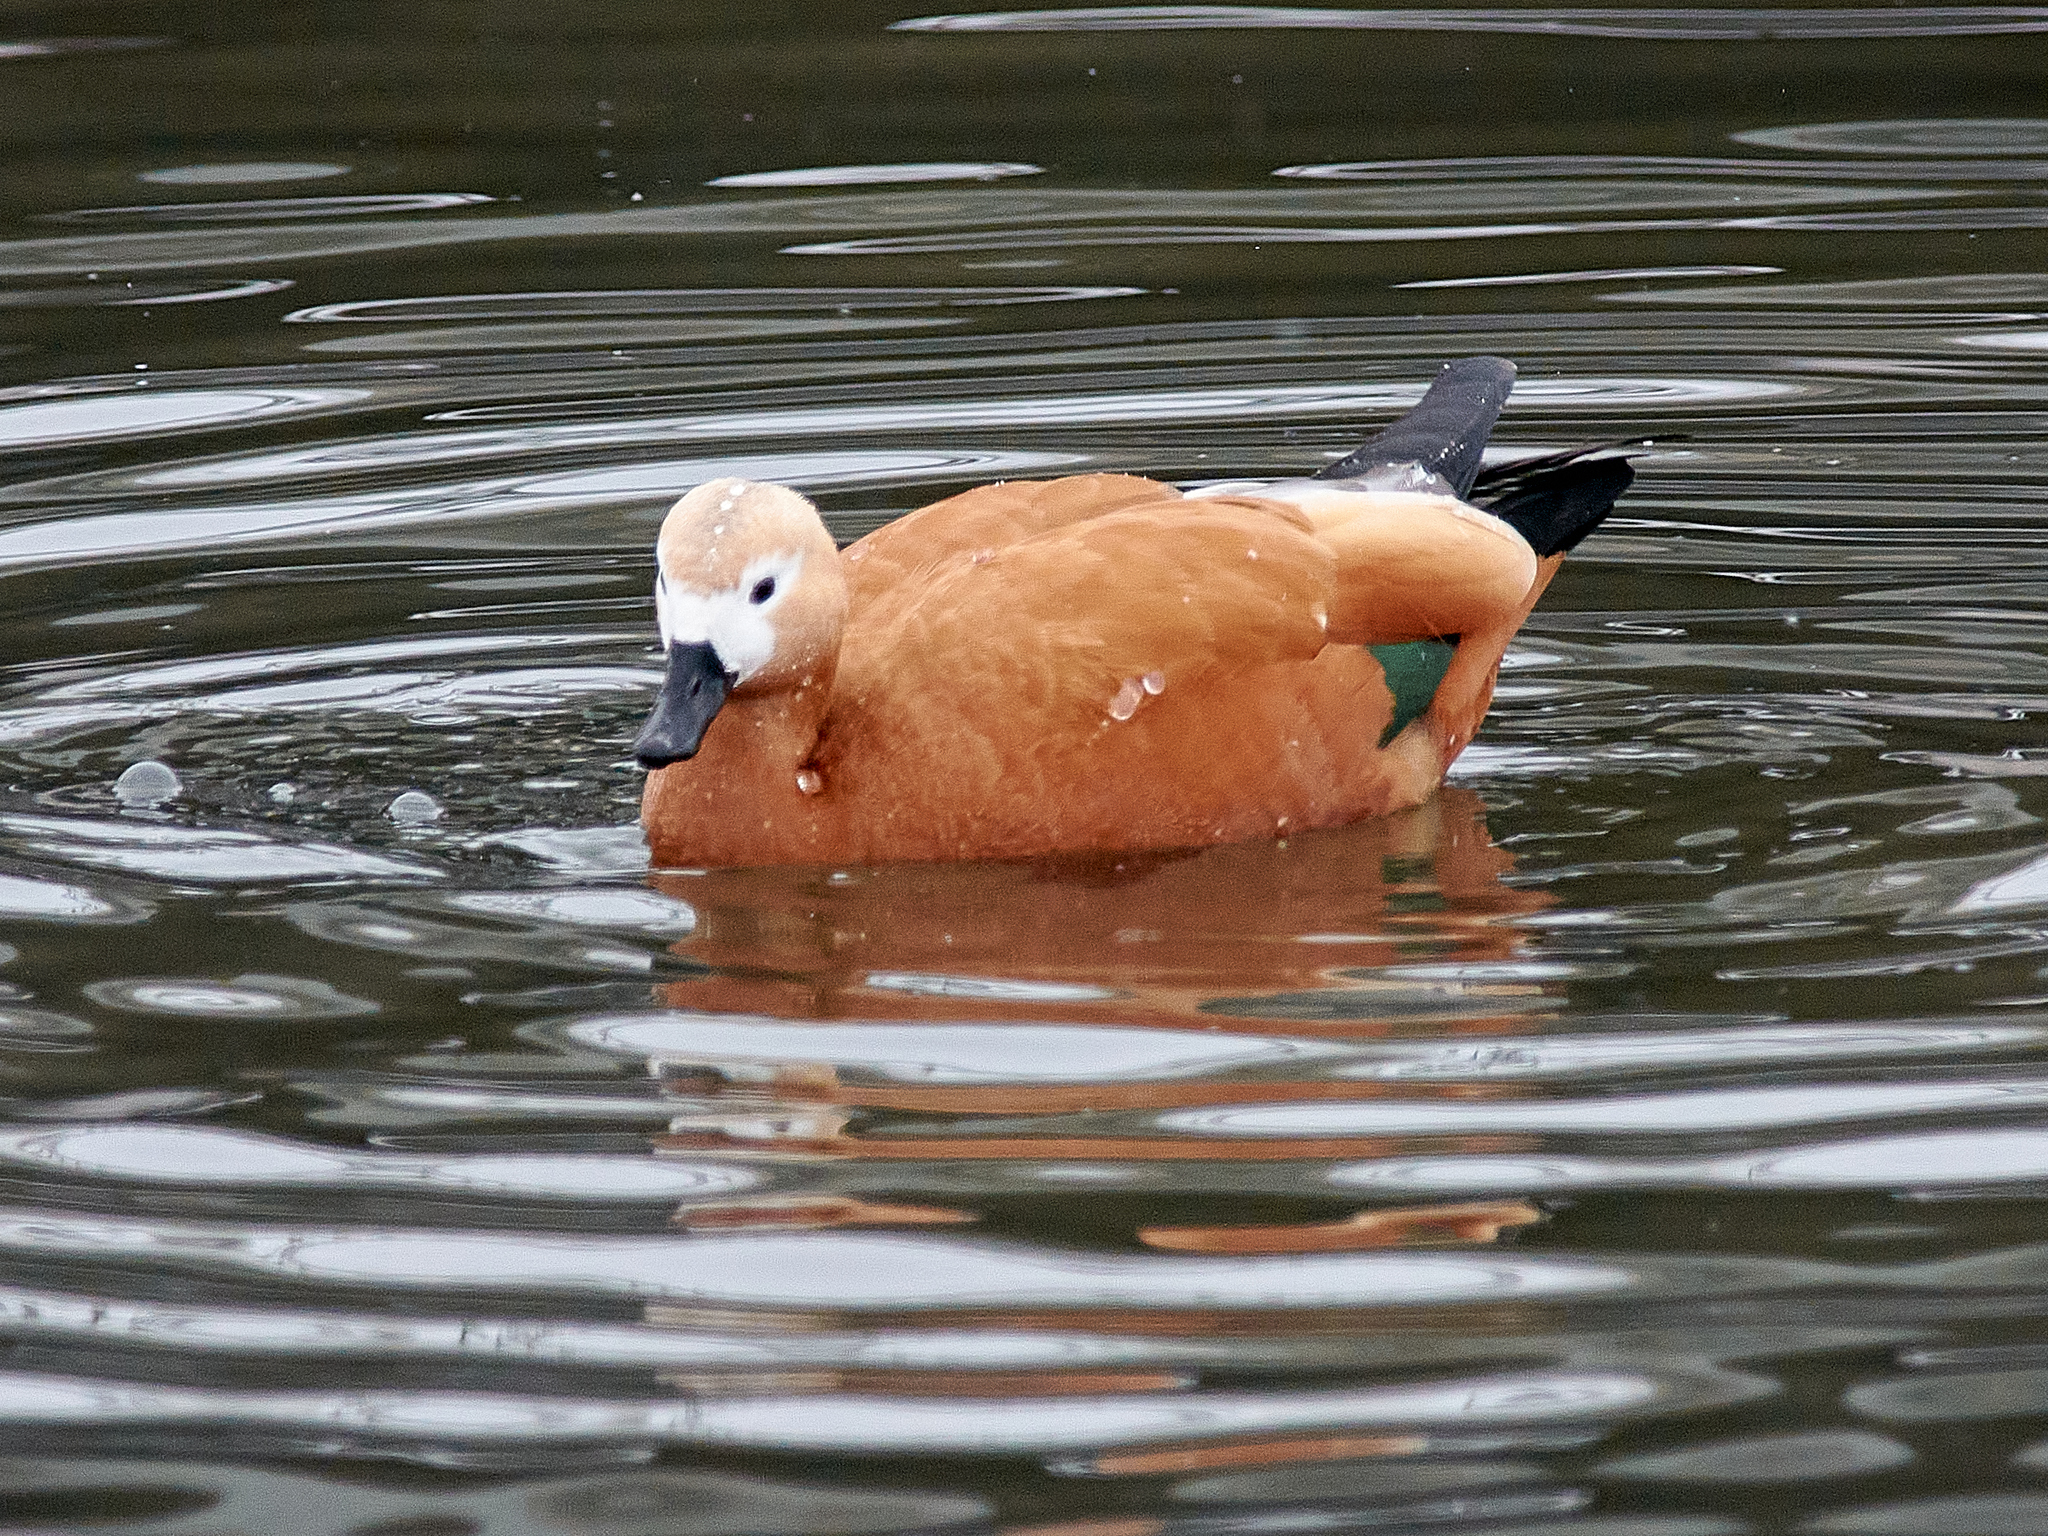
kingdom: Animalia
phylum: Chordata
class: Aves
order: Anseriformes
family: Anatidae
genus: Tadorna
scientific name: Tadorna ferruginea
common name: Ruddy shelduck
